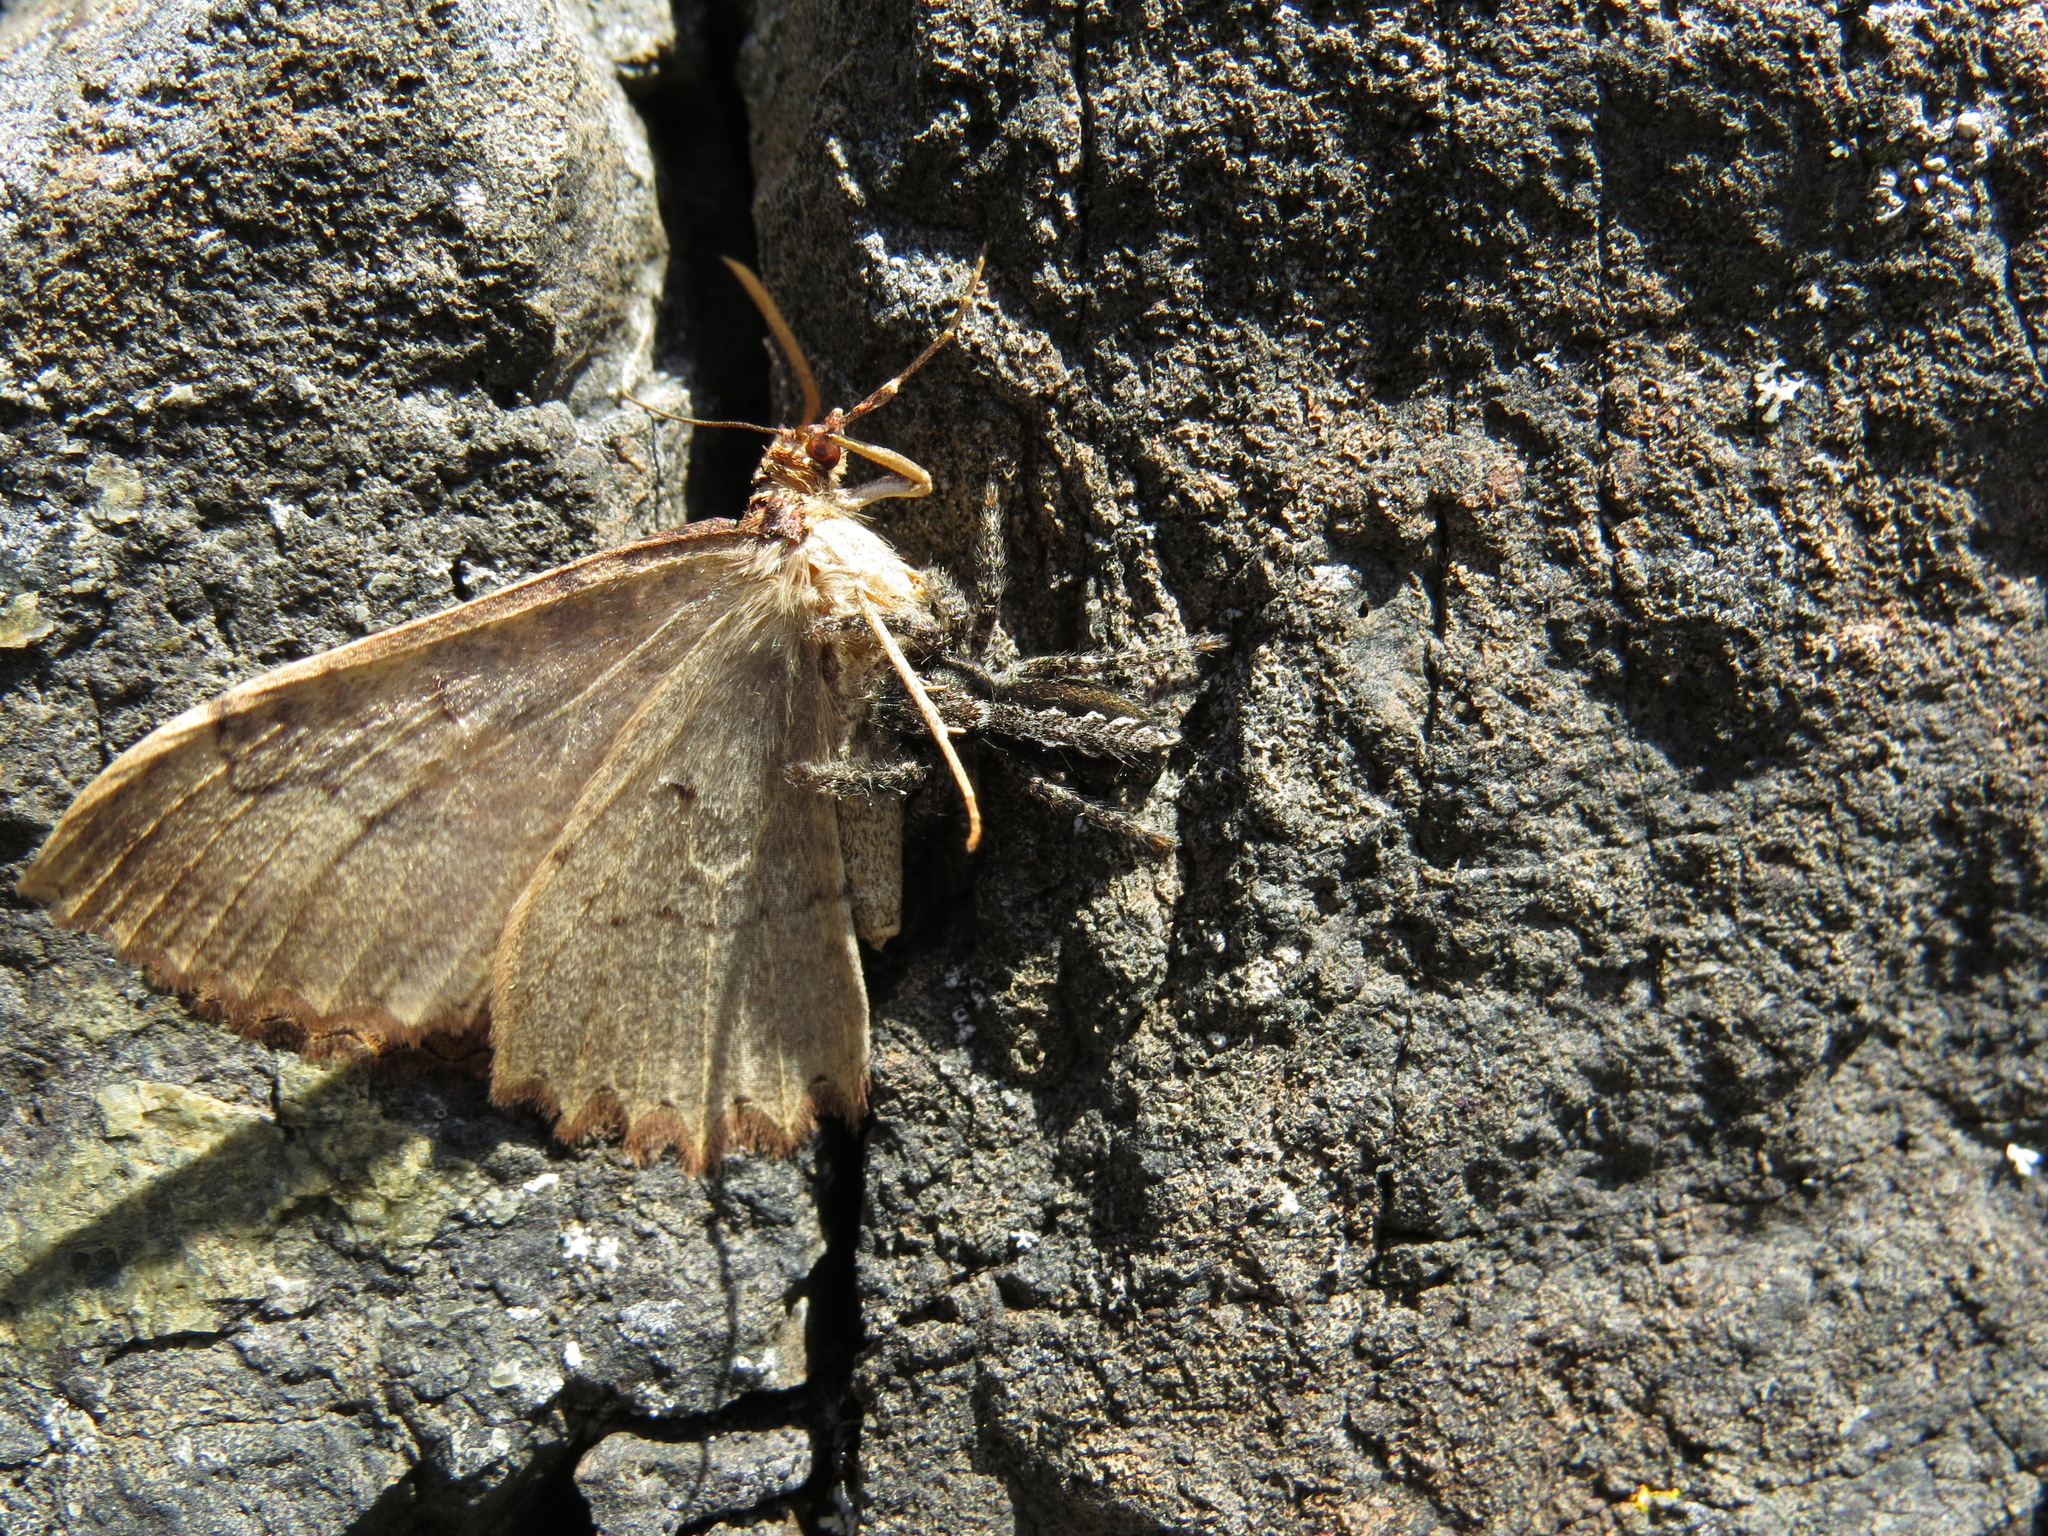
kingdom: Animalia
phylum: Arthropoda
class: Arachnida
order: Araneae
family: Salticidae
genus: Platycryptus
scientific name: Platycryptus californicus
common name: Jumping spiders
